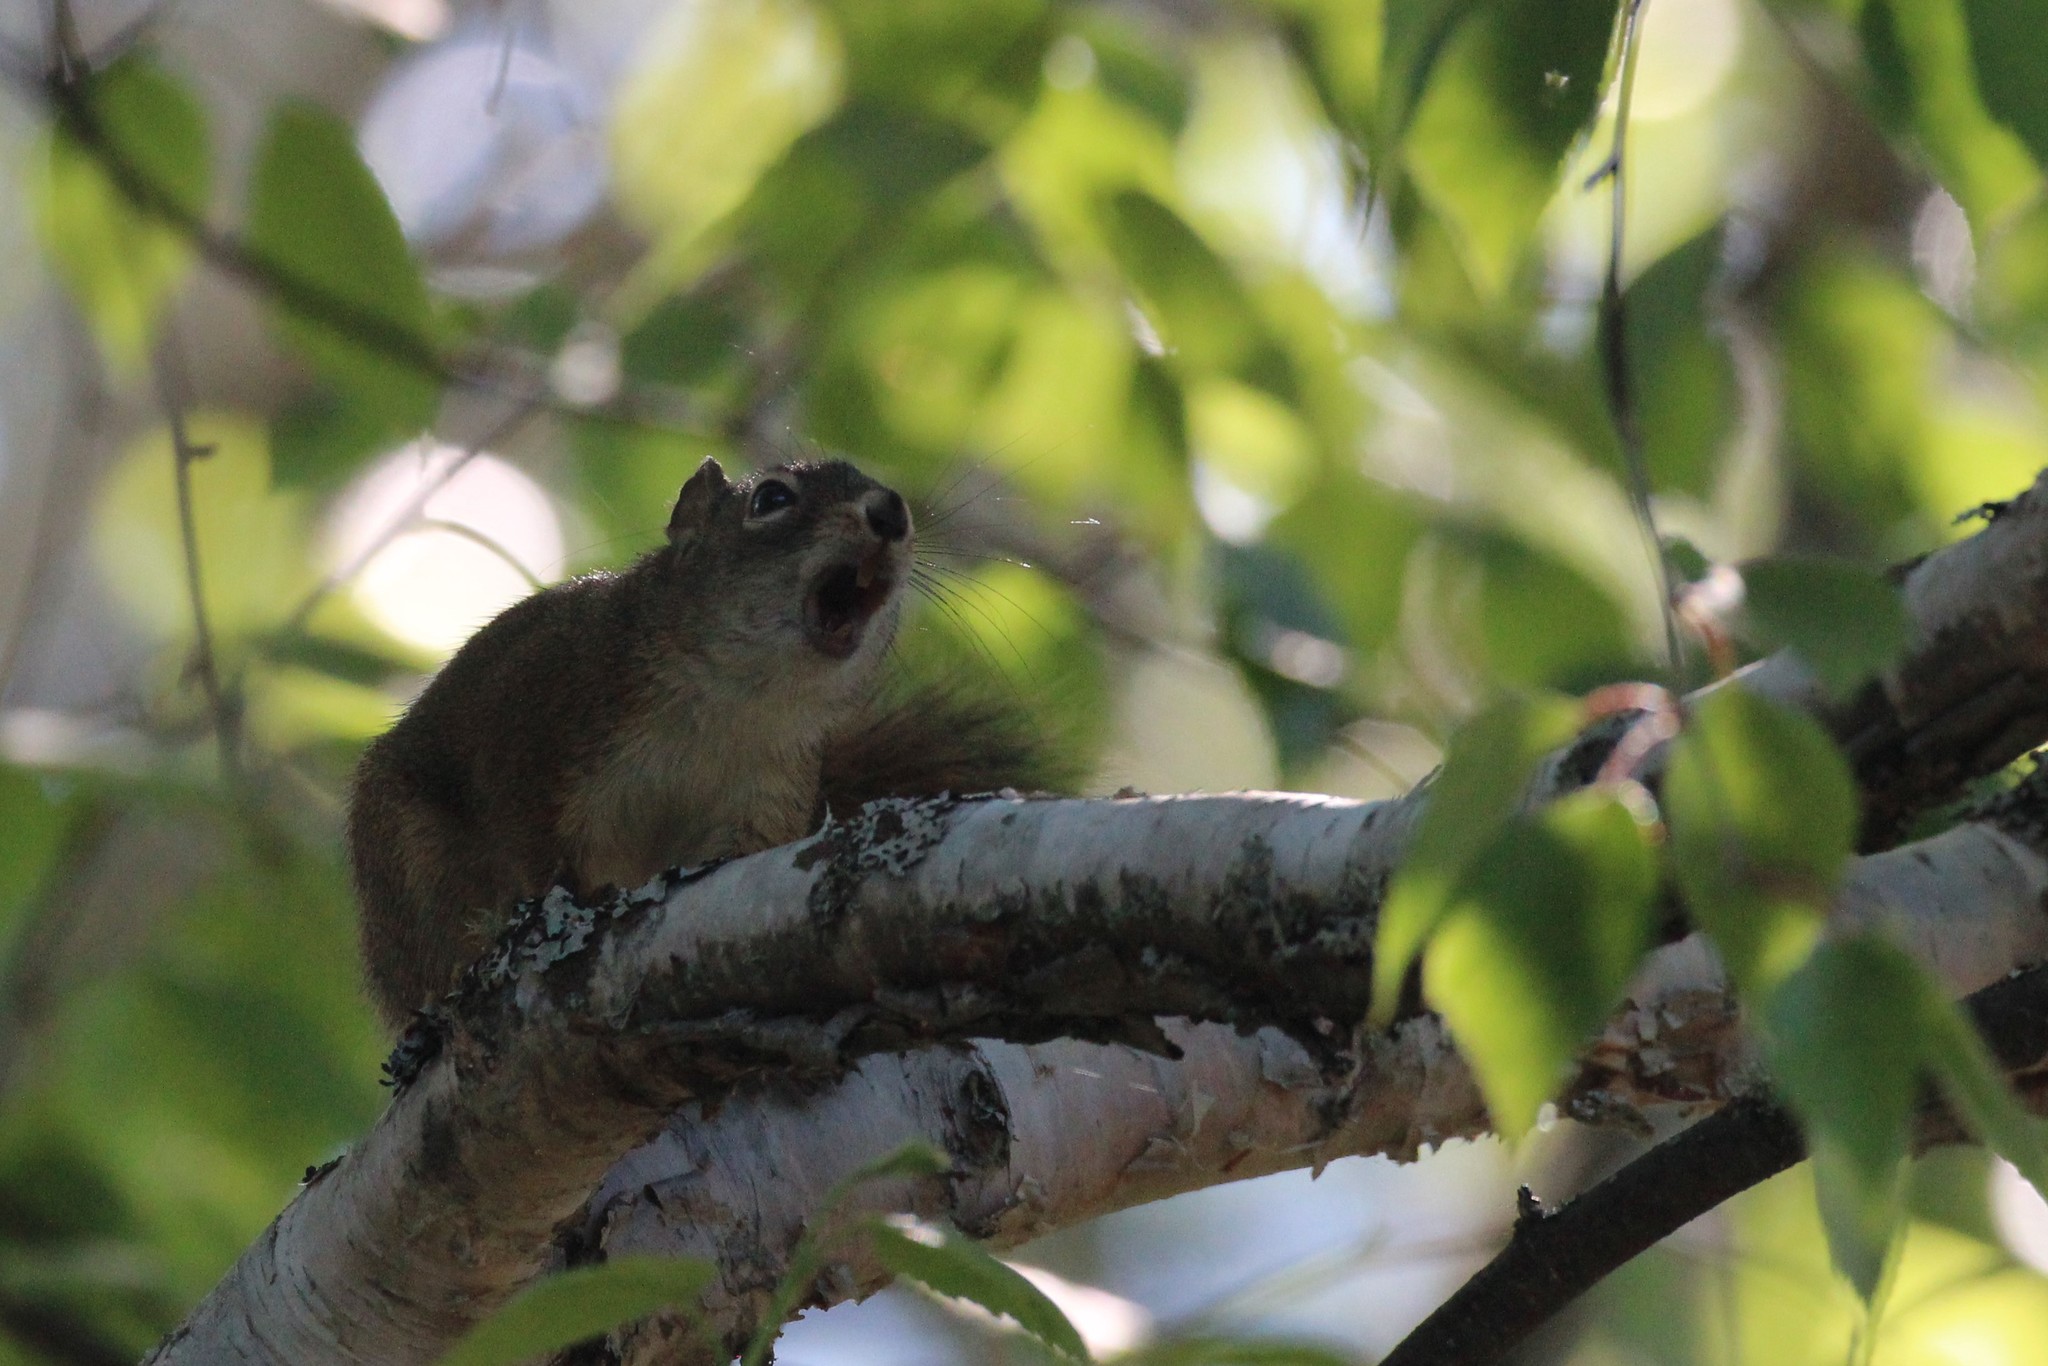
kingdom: Animalia
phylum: Chordata
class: Mammalia
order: Rodentia
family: Sciuridae
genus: Tamiasciurus
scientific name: Tamiasciurus hudsonicus
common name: Red squirrel
